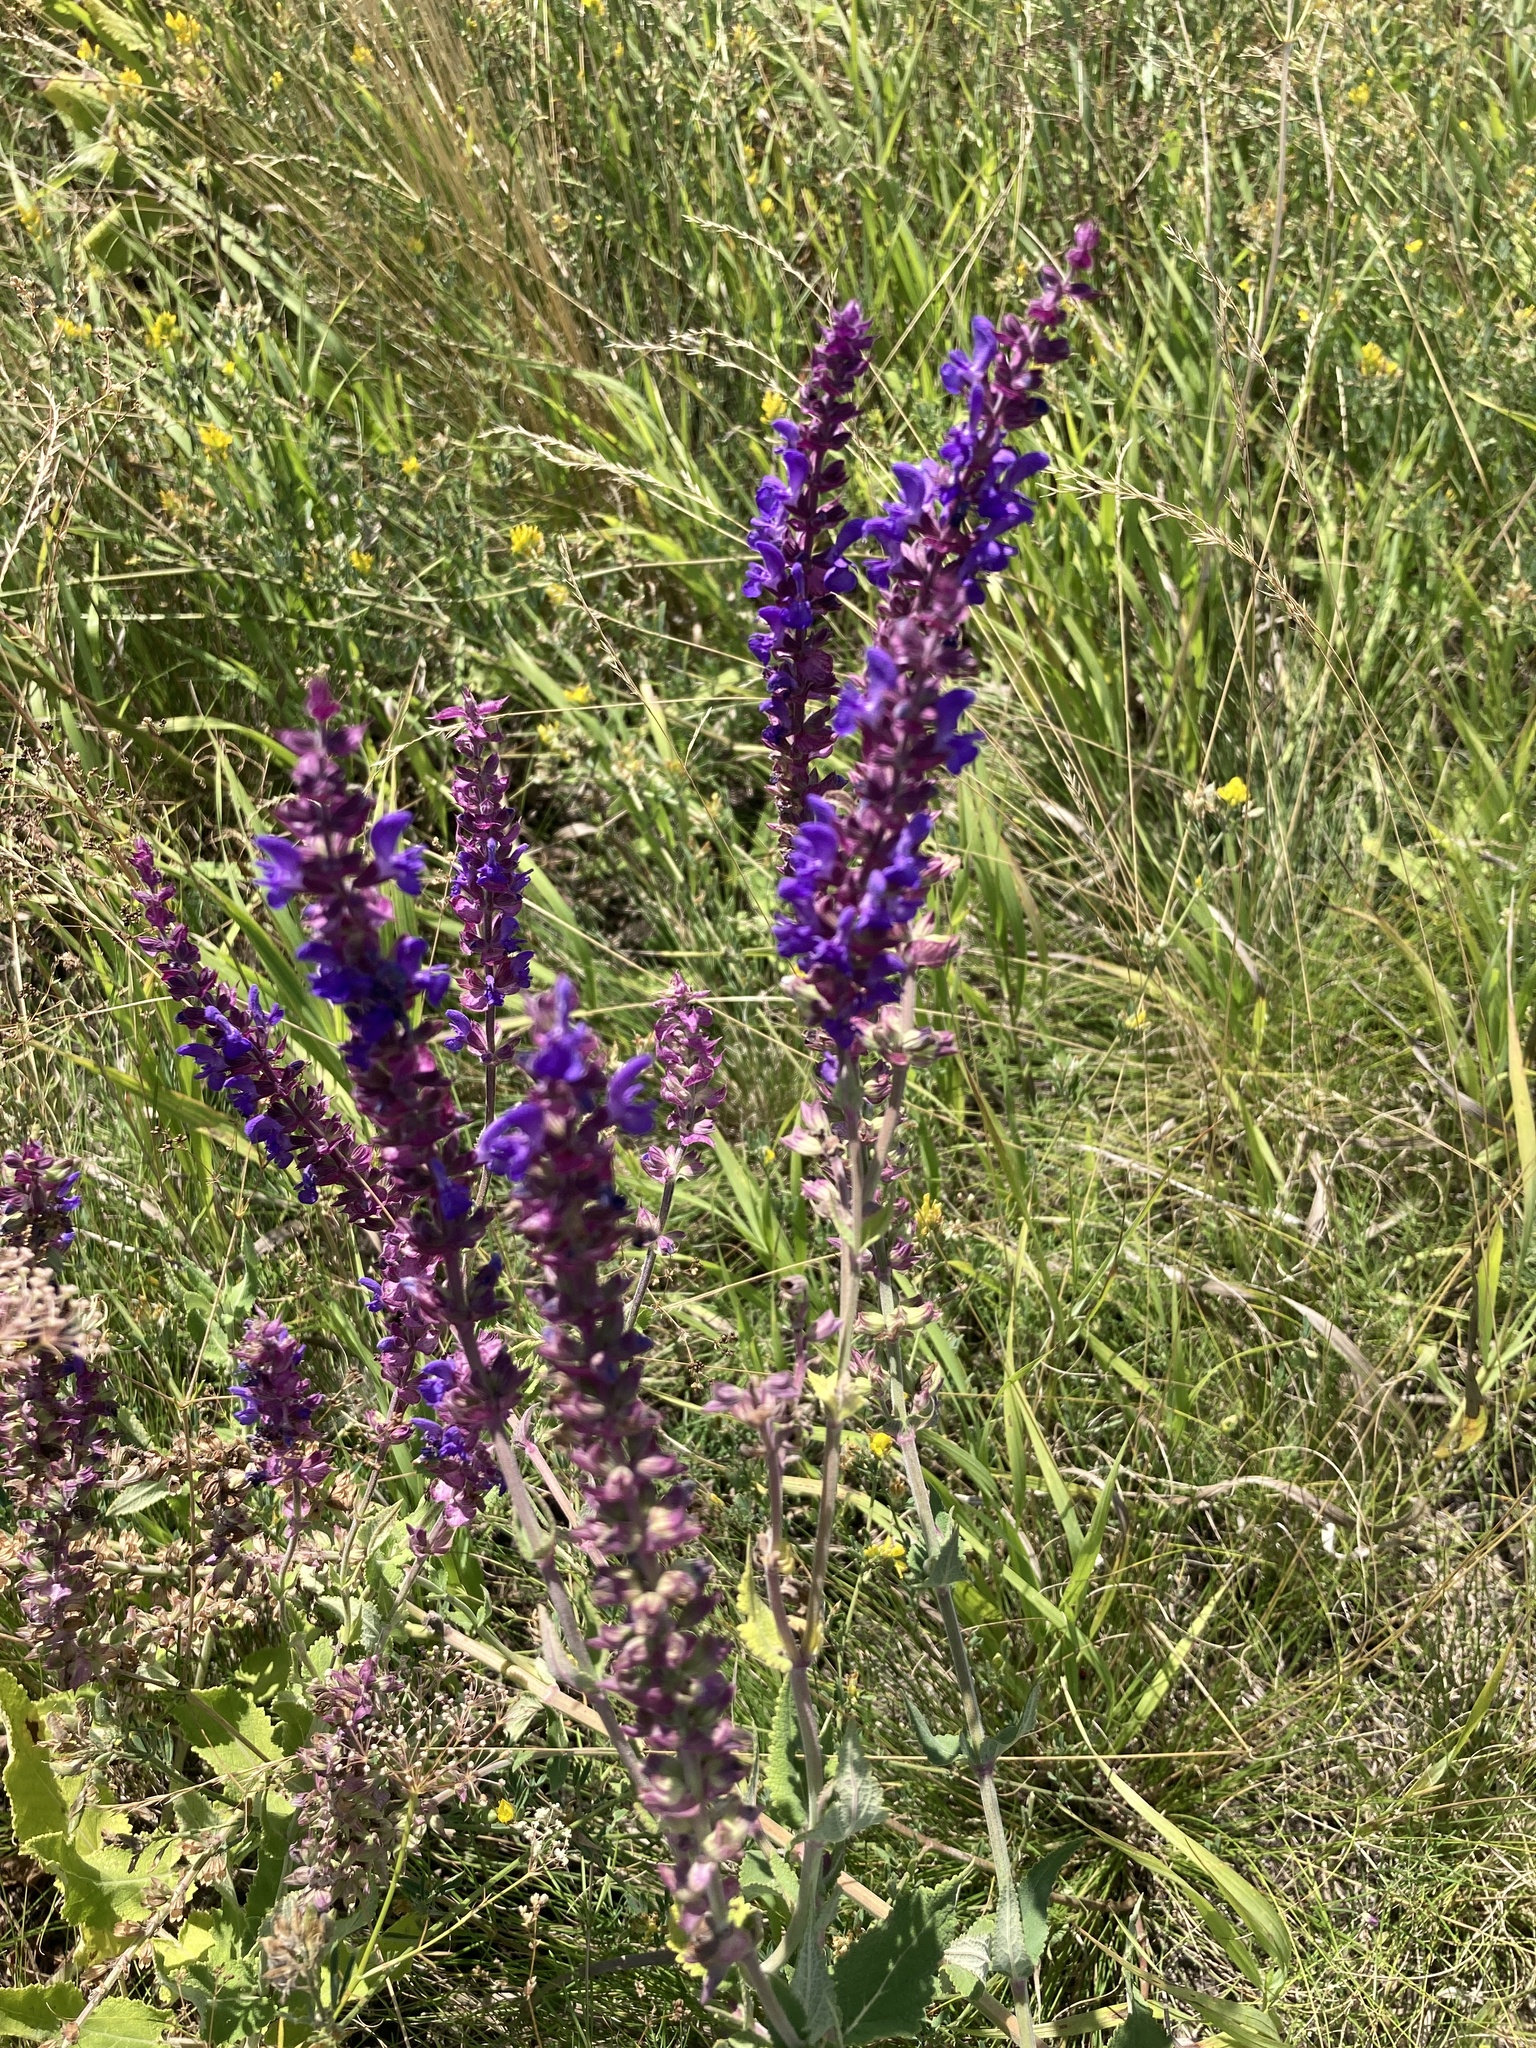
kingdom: Plantae
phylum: Tracheophyta
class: Magnoliopsida
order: Lamiales
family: Lamiaceae
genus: Salvia
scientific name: Salvia nemorosa
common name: Balkan clary
